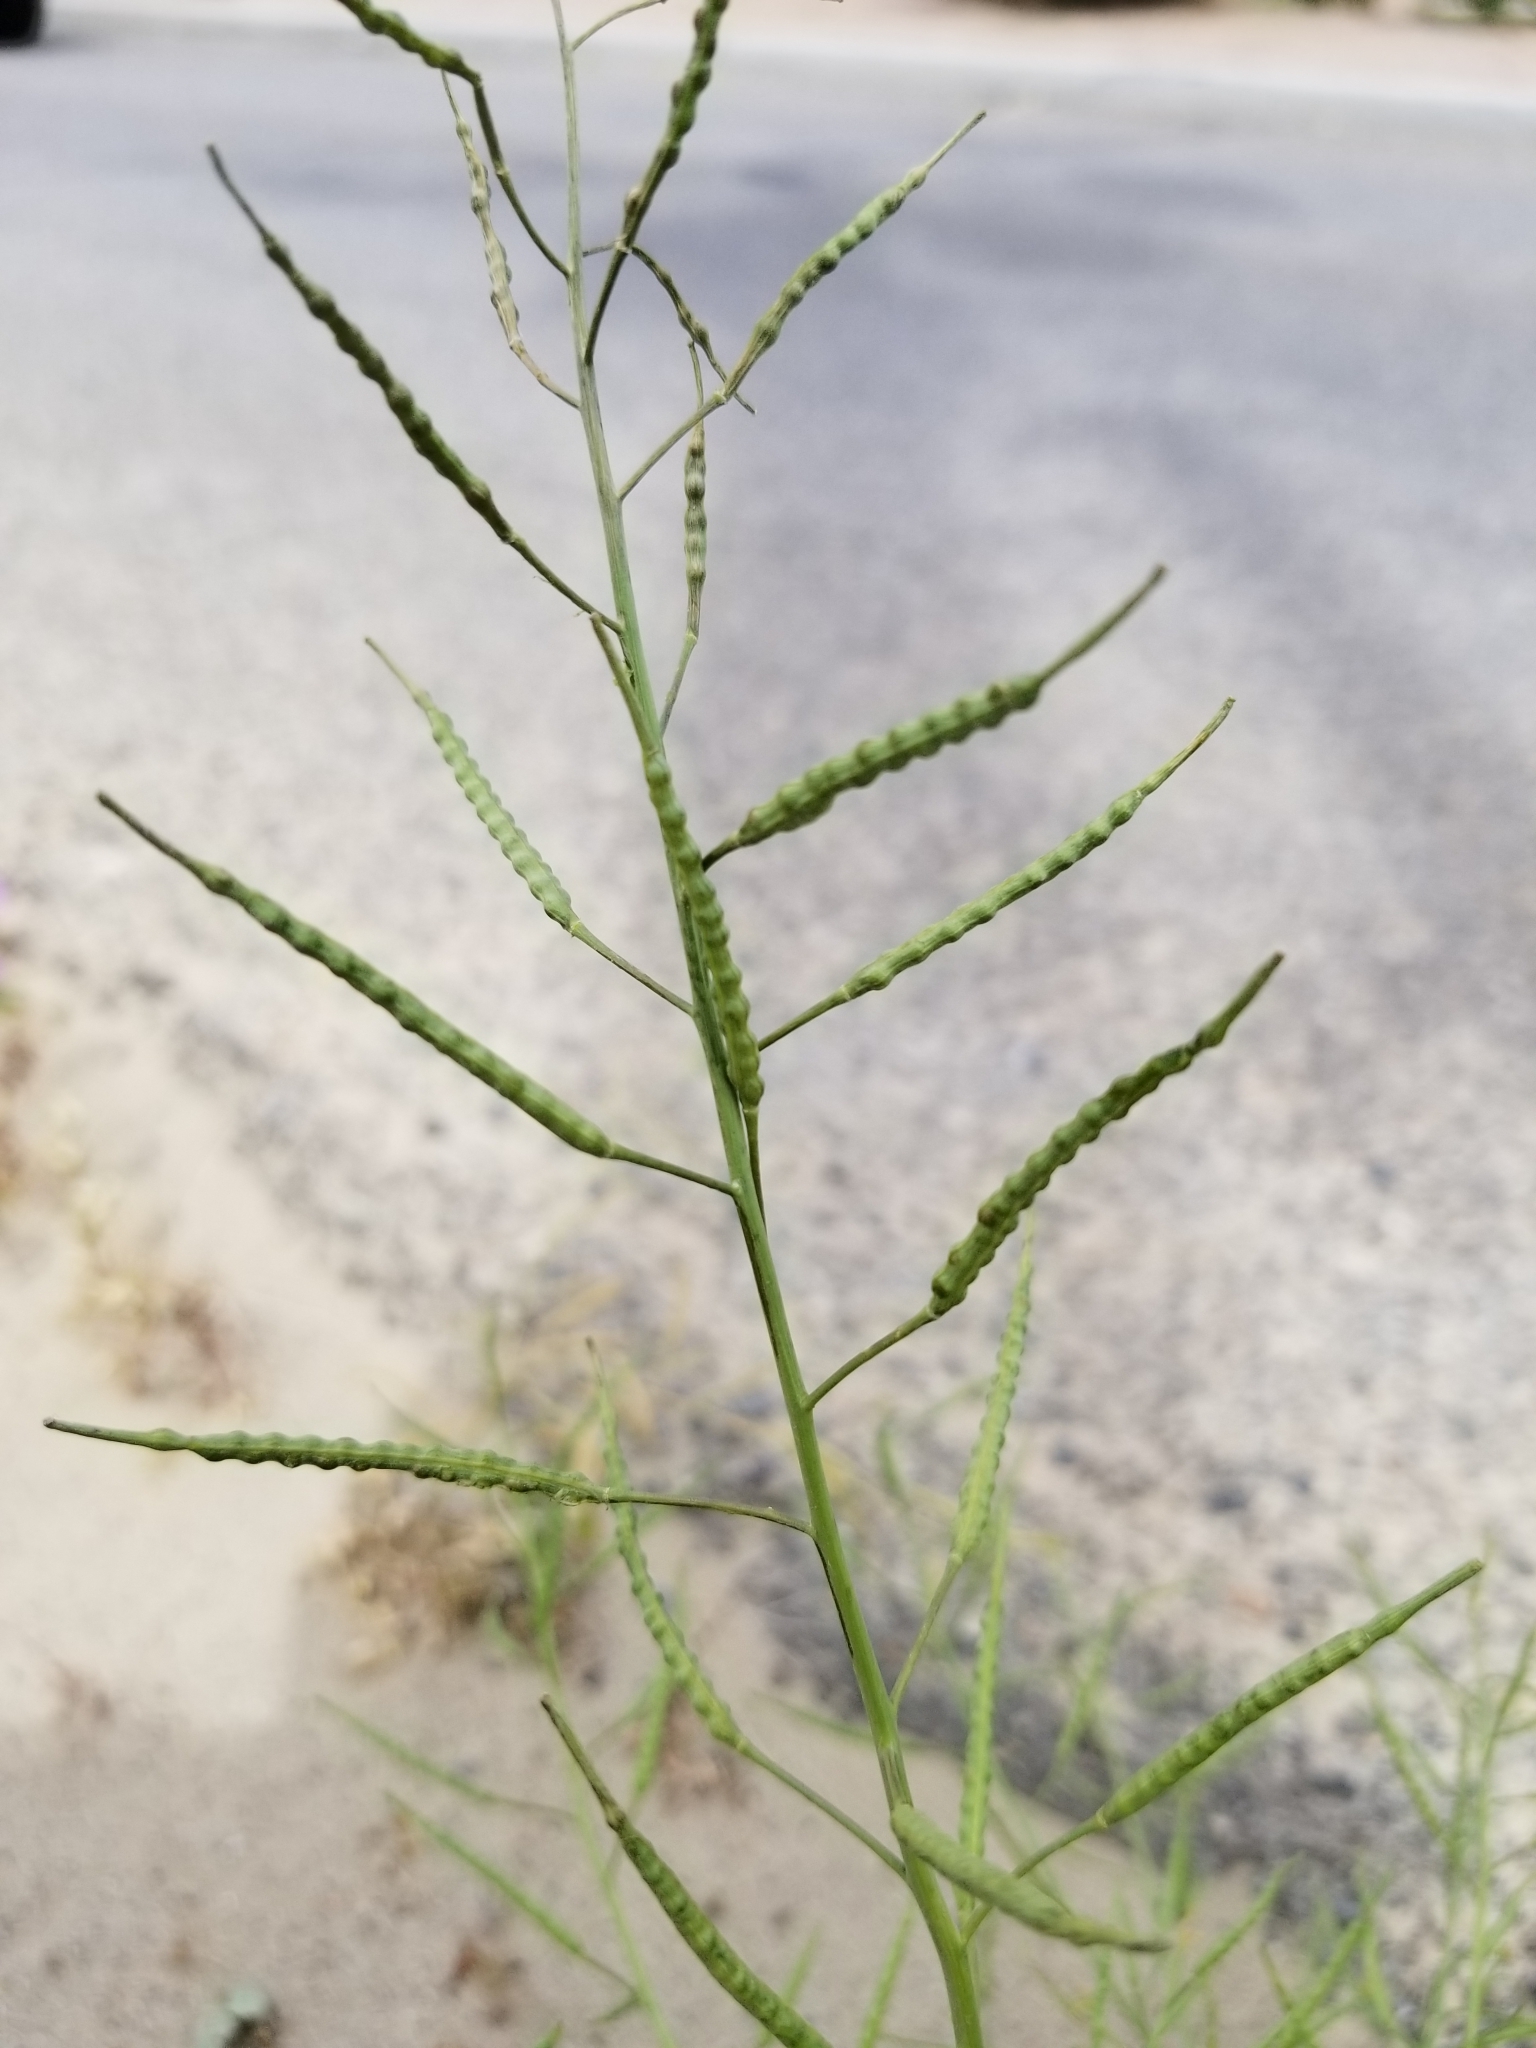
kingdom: Plantae
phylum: Tracheophyta
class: Magnoliopsida
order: Brassicales
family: Brassicaceae
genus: Brassica
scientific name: Brassica tournefortii
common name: Pale cabbage
